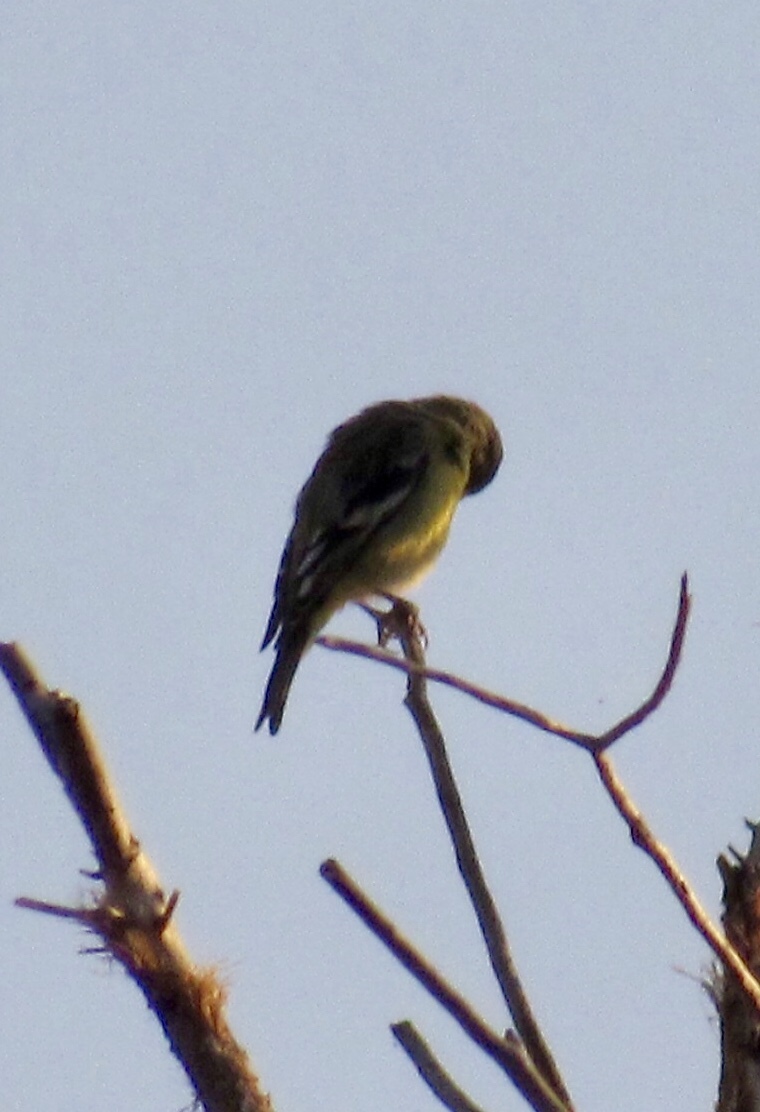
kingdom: Animalia
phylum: Chordata
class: Aves
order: Passeriformes
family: Fringillidae
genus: Spinus
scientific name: Spinus psaltria
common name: Lesser goldfinch
